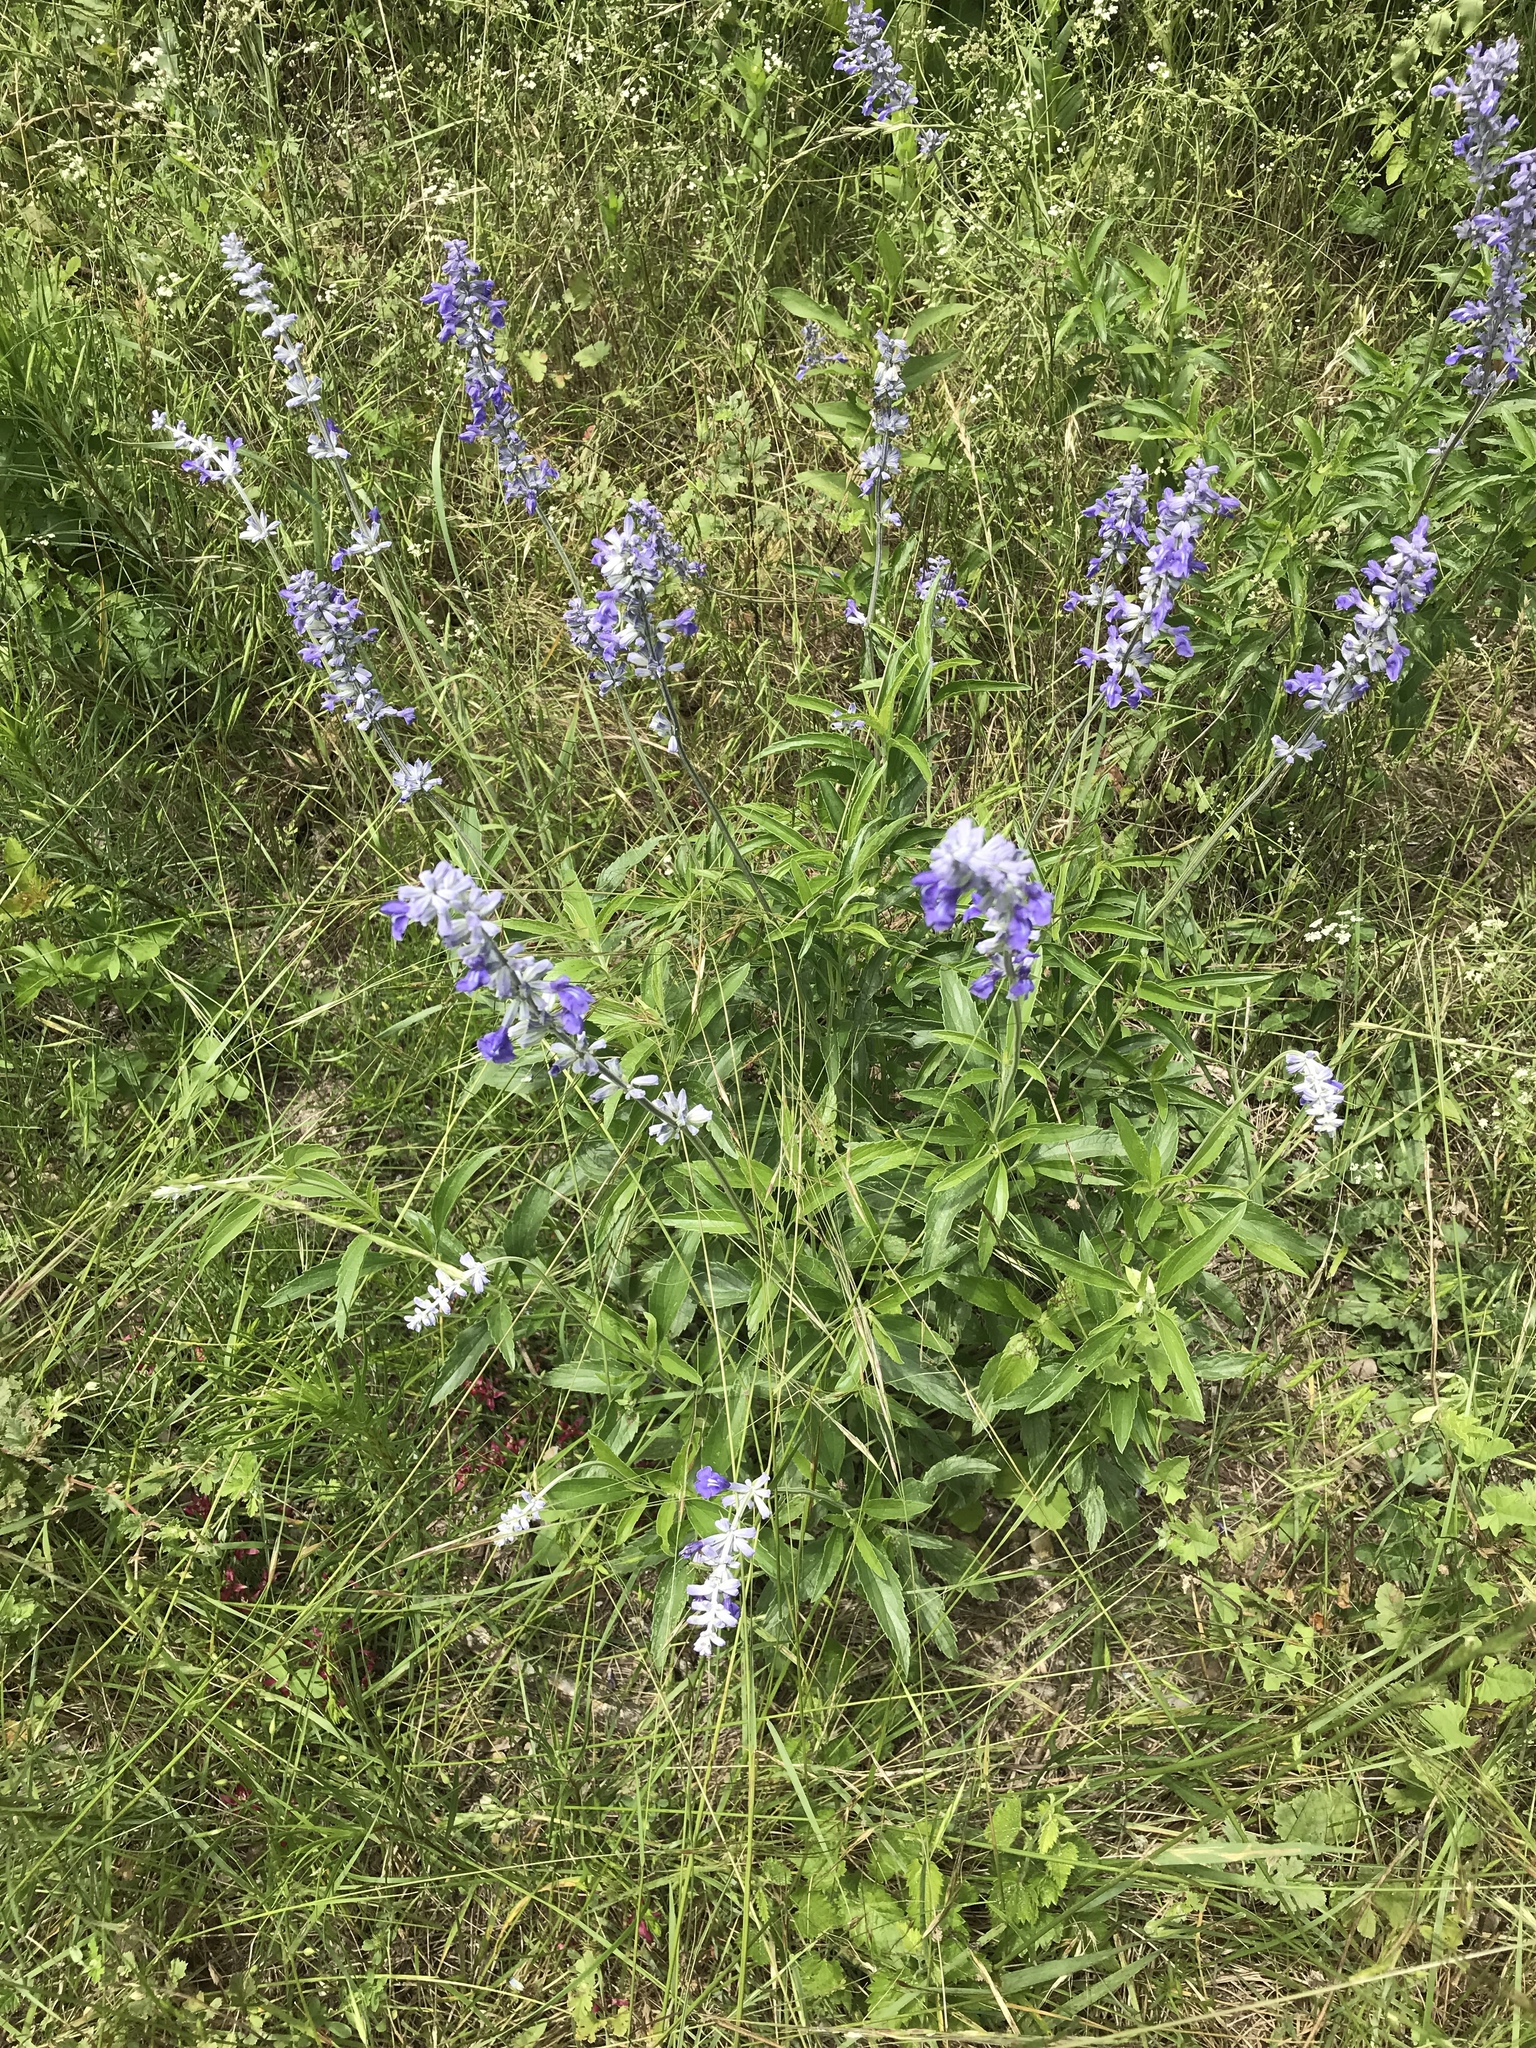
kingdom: Plantae
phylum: Tracheophyta
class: Magnoliopsida
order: Lamiales
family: Lamiaceae
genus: Salvia
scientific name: Salvia farinacea
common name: Mealy sage
